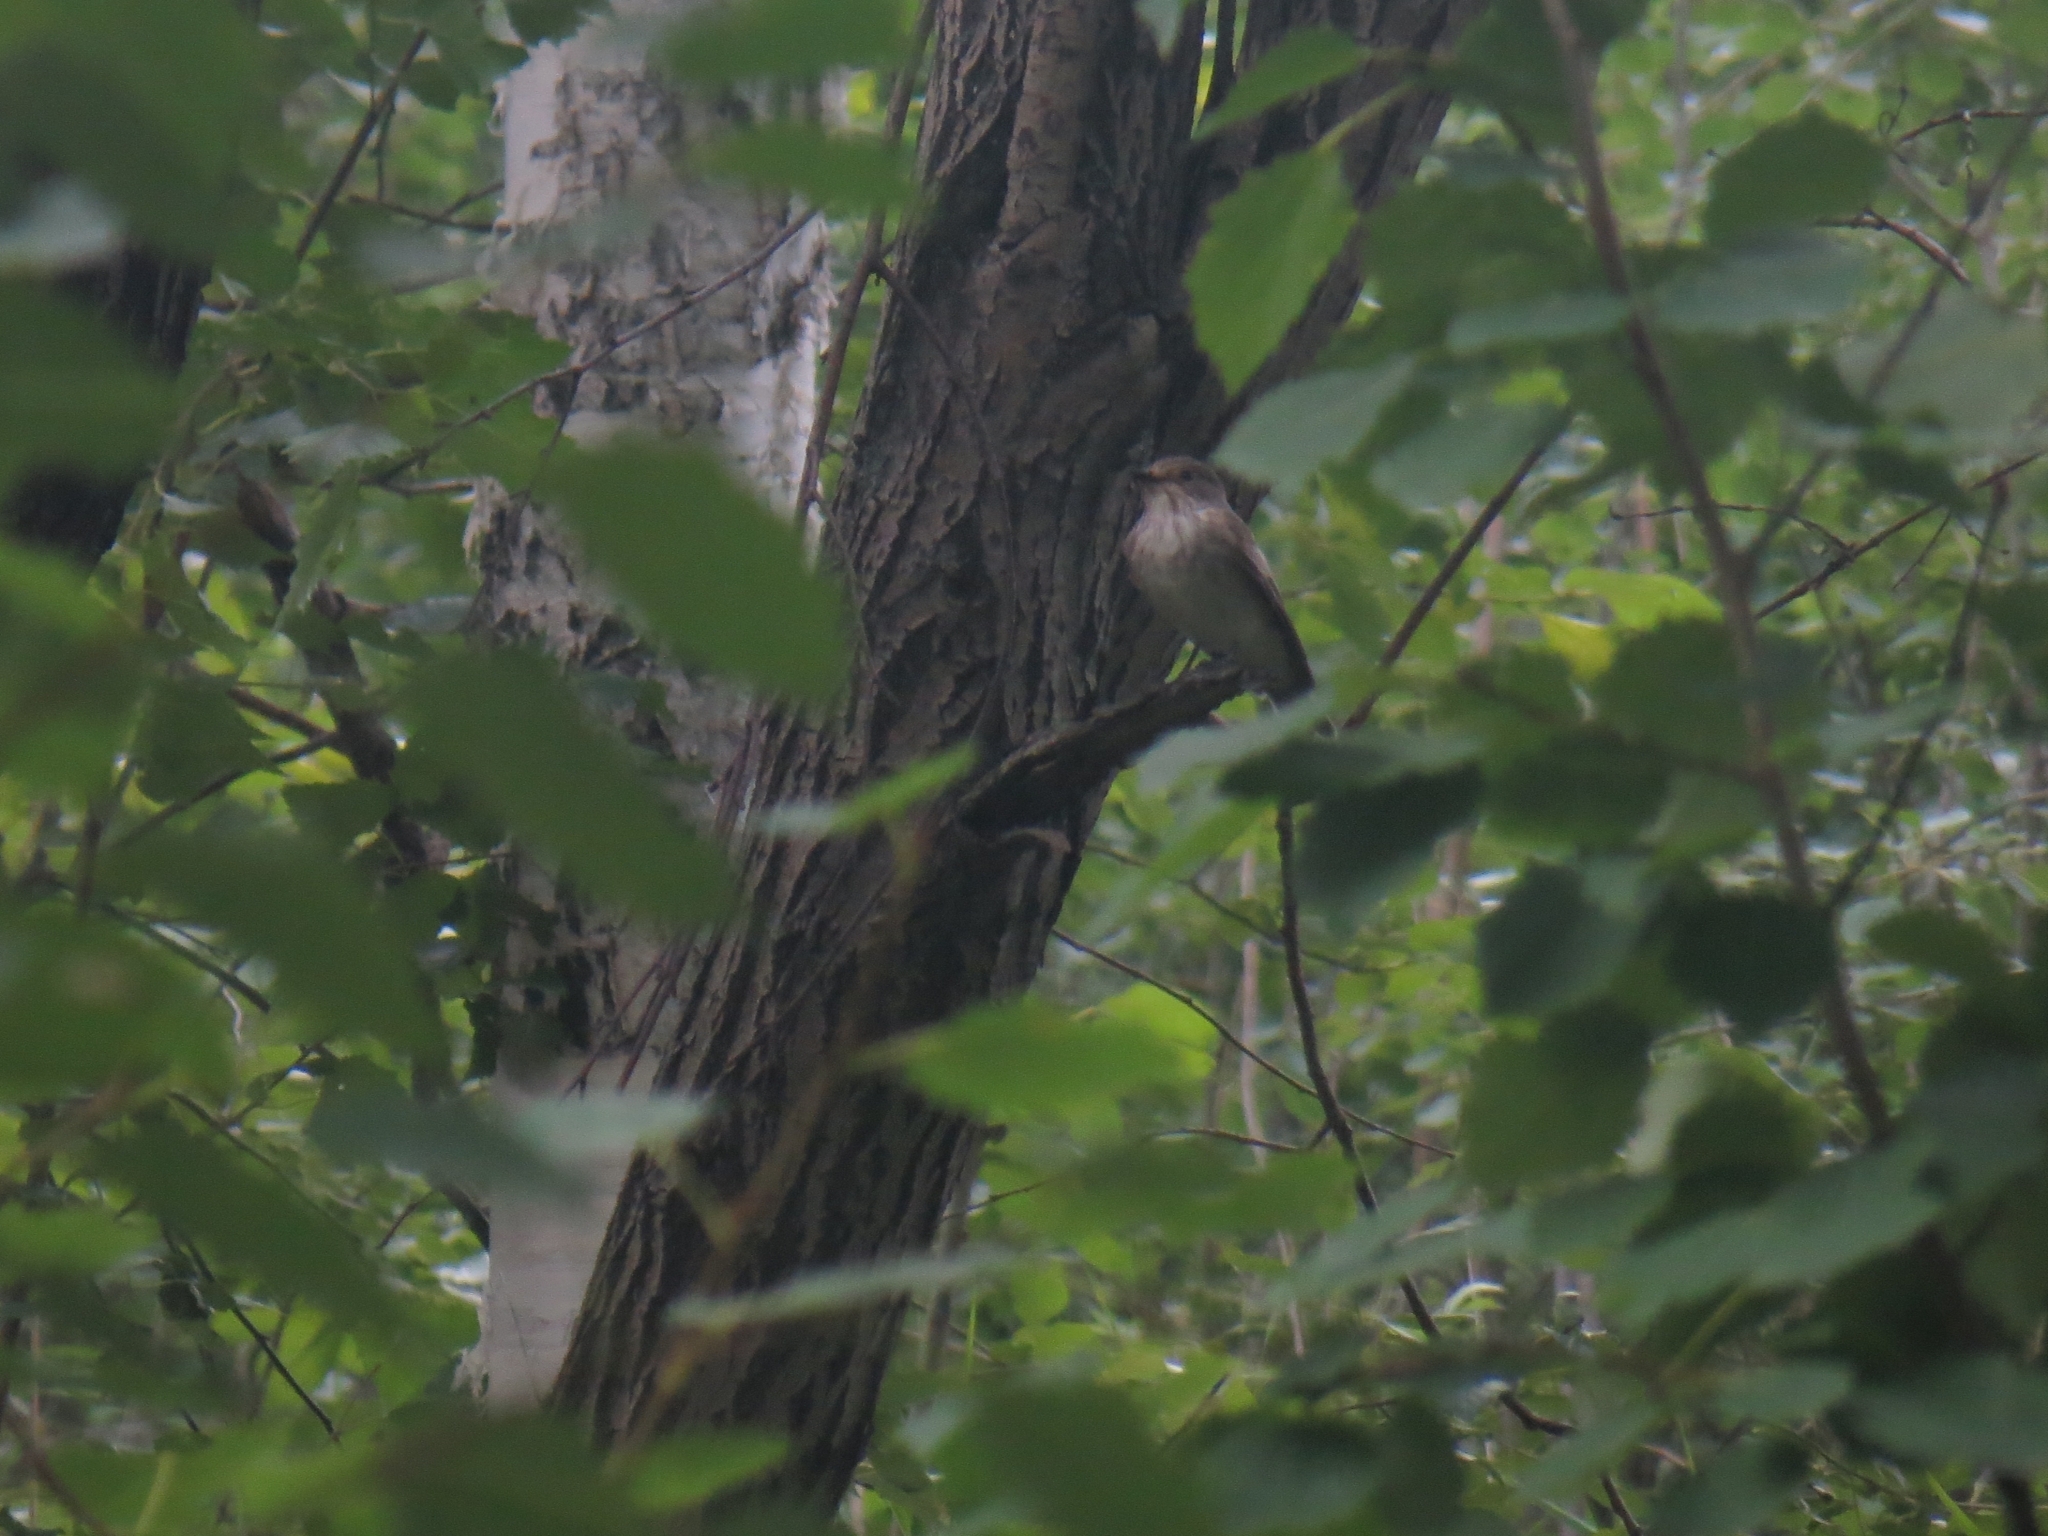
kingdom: Animalia
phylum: Chordata
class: Aves
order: Passeriformes
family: Muscicapidae
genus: Muscicapa
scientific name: Muscicapa striata
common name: Spotted flycatcher
